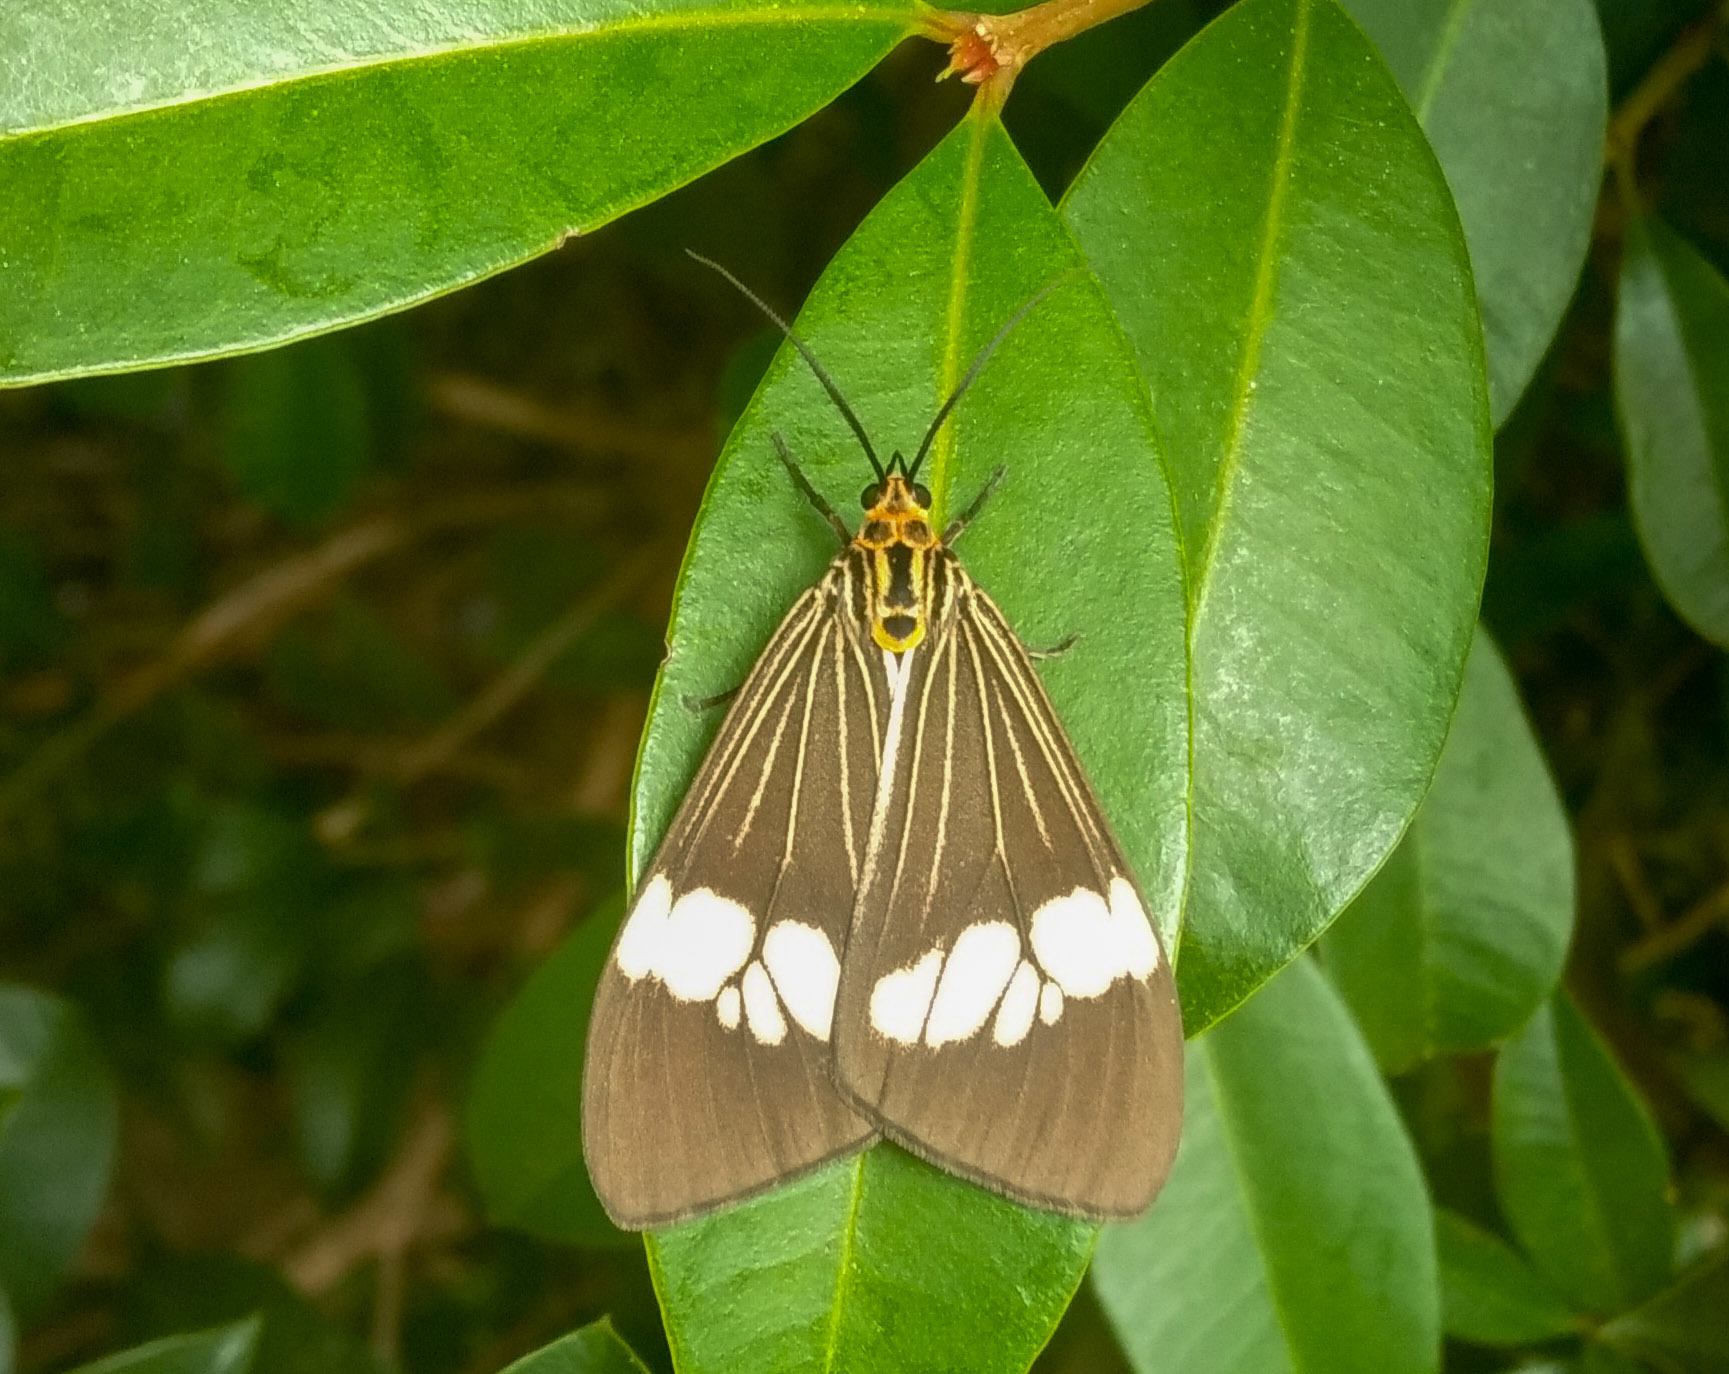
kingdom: Animalia
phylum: Arthropoda
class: Insecta
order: Lepidoptera
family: Erebidae
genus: Nyctemera
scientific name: Nyctemera baulus
